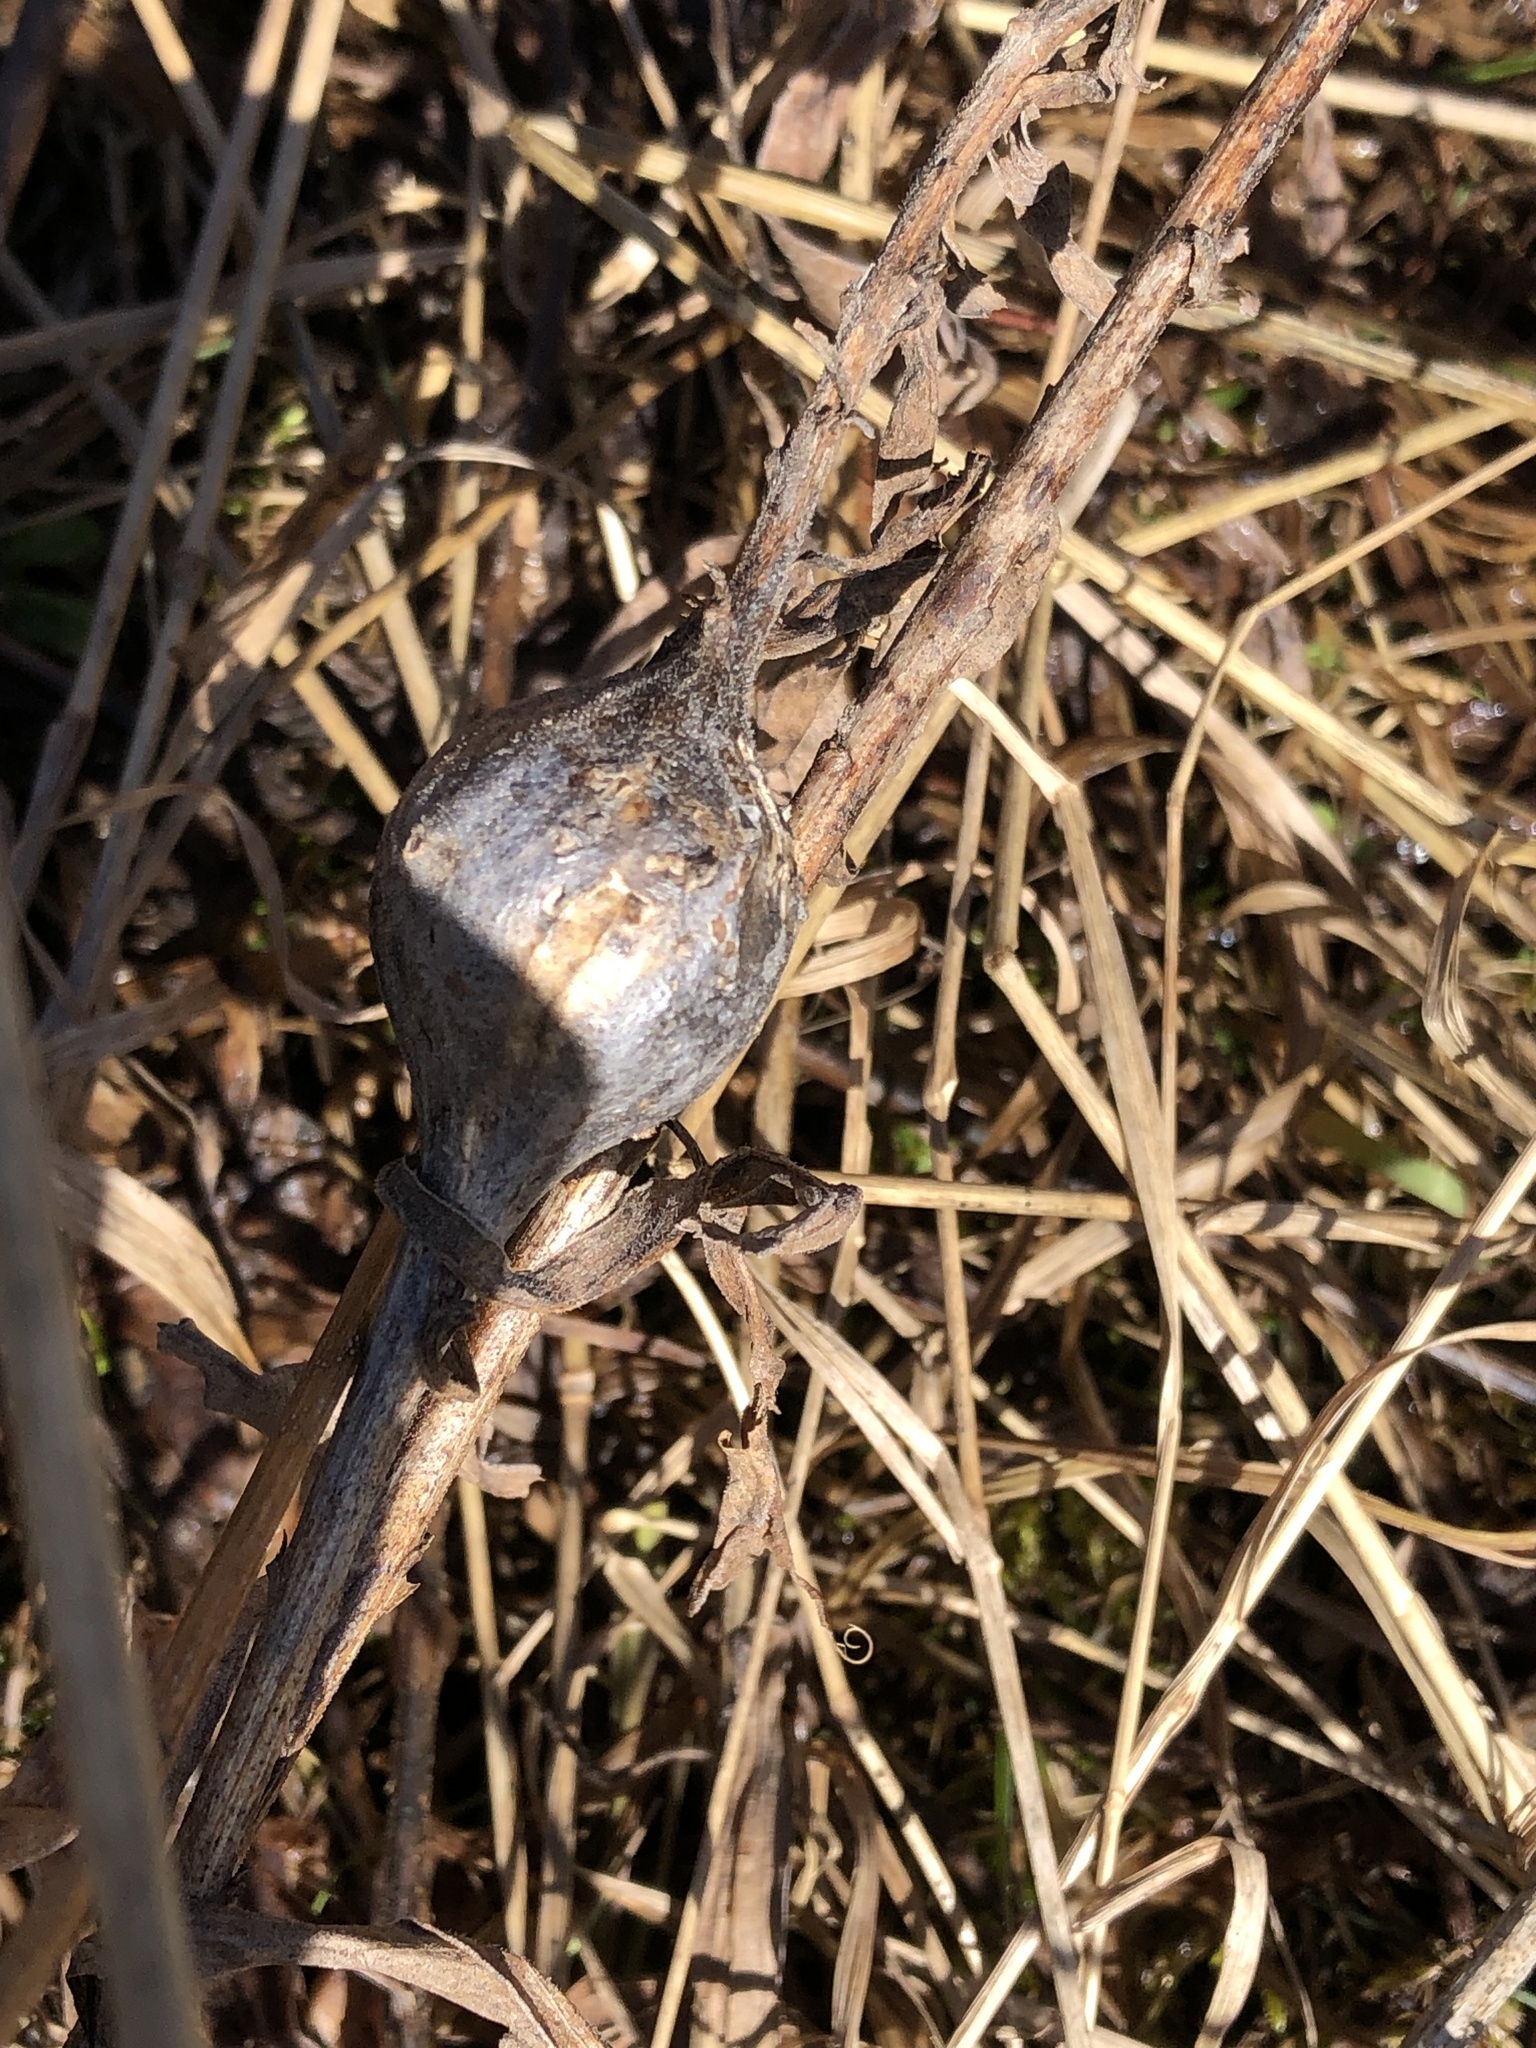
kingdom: Animalia
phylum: Arthropoda
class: Insecta
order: Diptera
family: Tephritidae
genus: Eurosta
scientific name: Eurosta solidaginis
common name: Goldenrod gall fly
